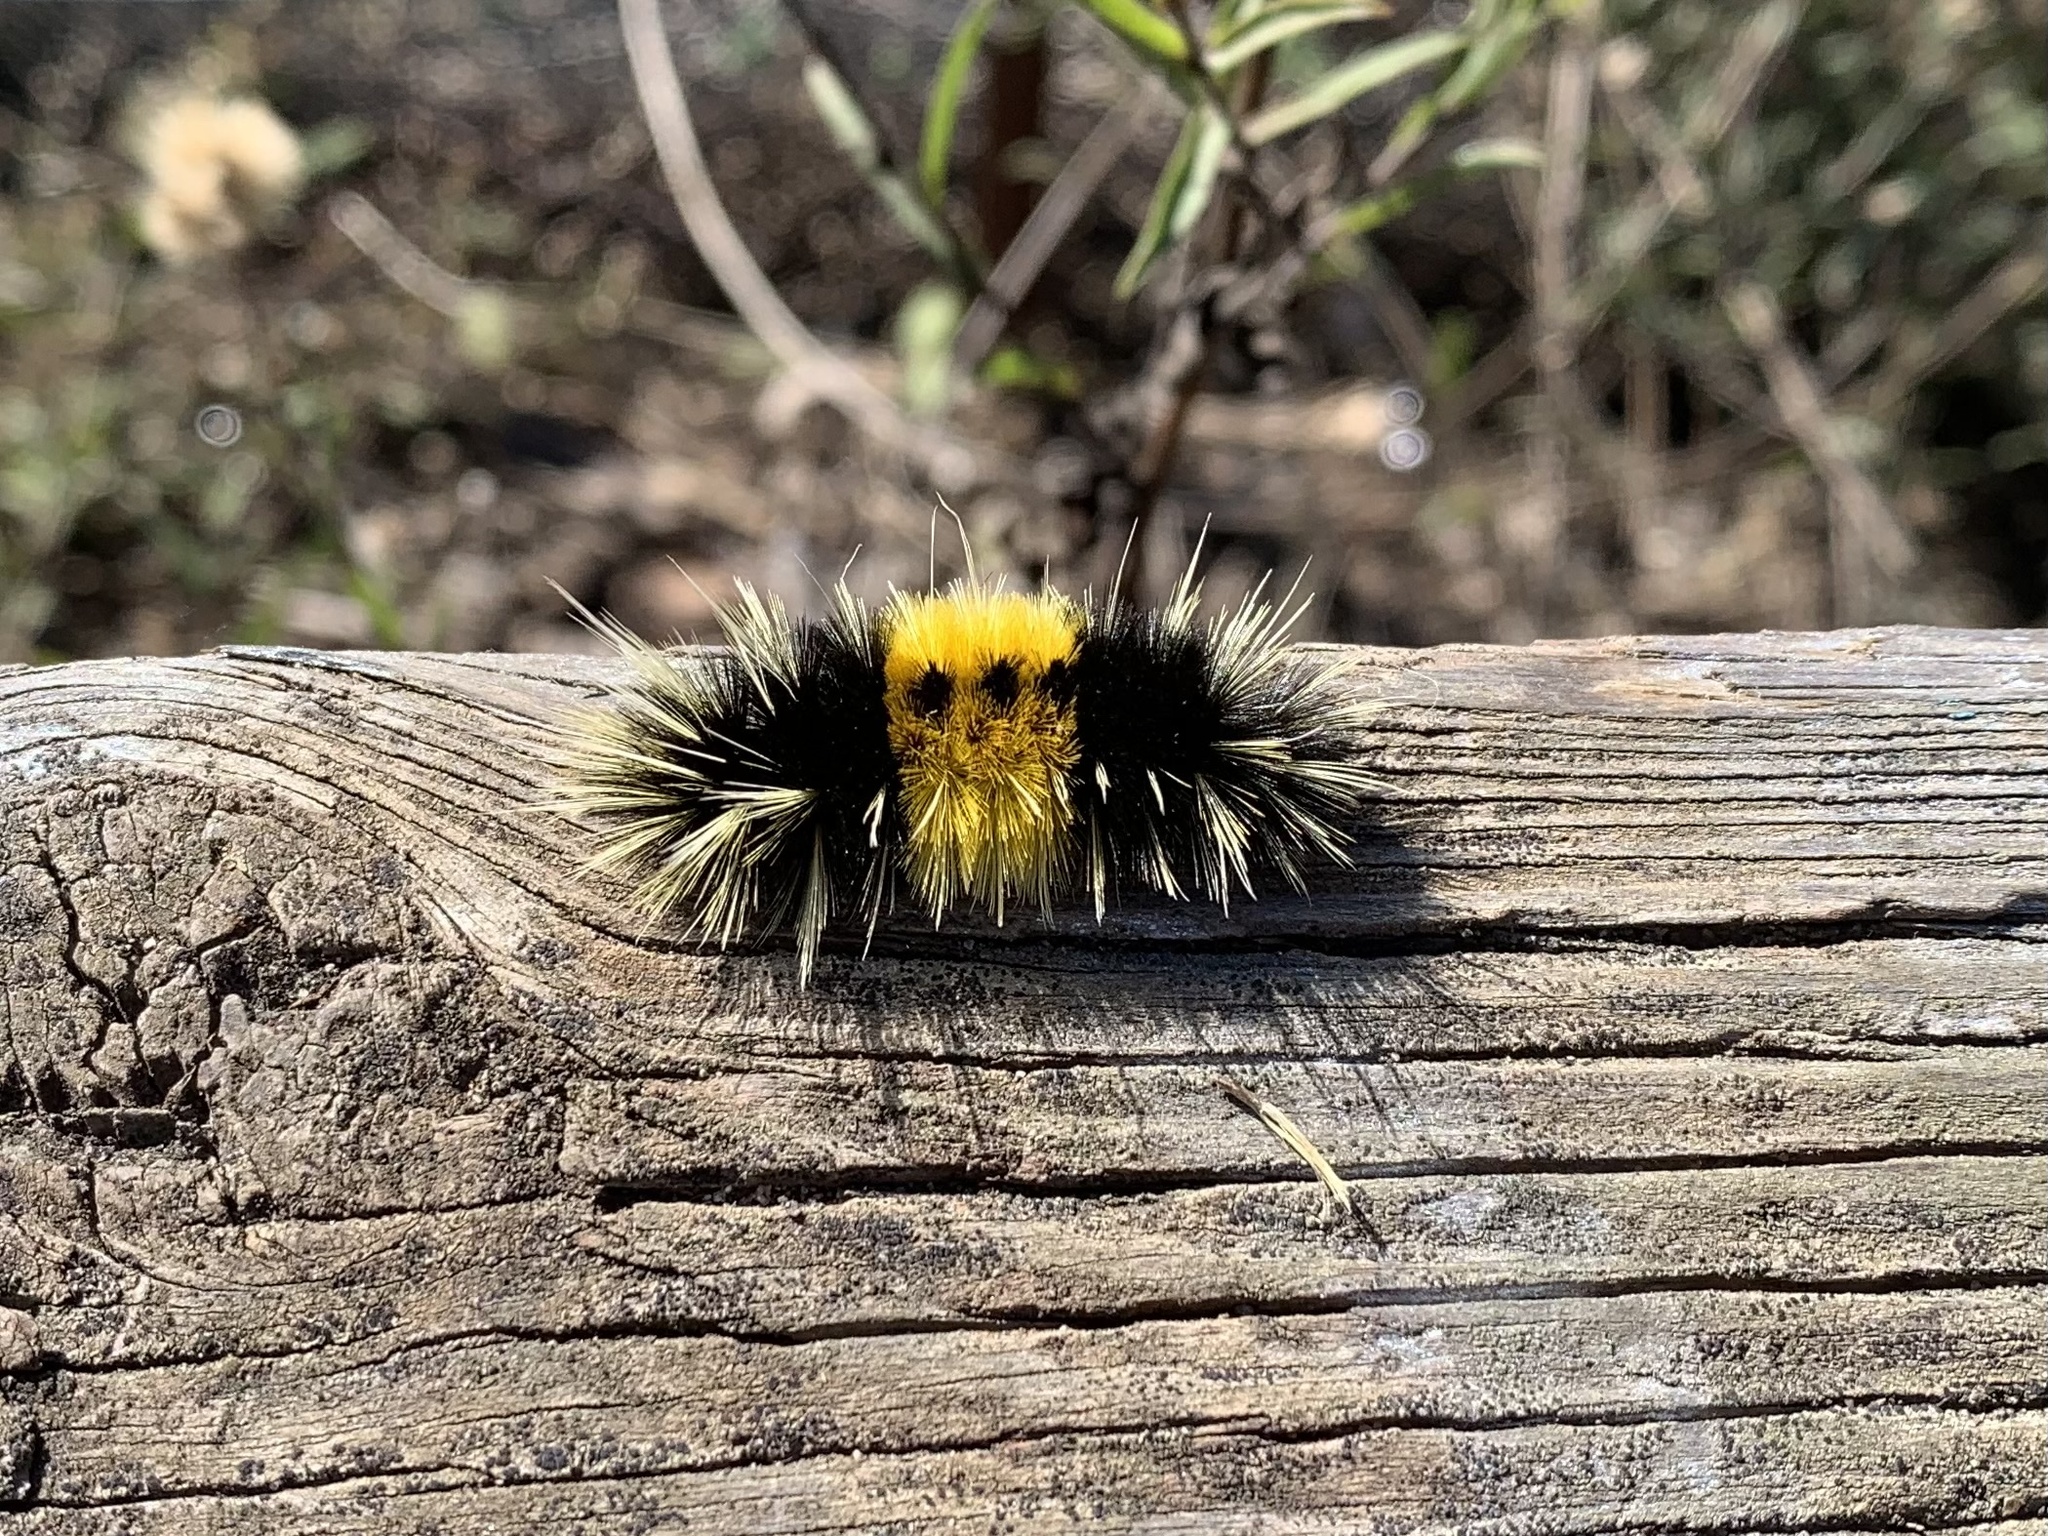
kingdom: Animalia
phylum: Arthropoda
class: Insecta
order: Lepidoptera
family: Erebidae
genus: Lophocampa
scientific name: Lophocampa maculata
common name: Spotted tussock moth
